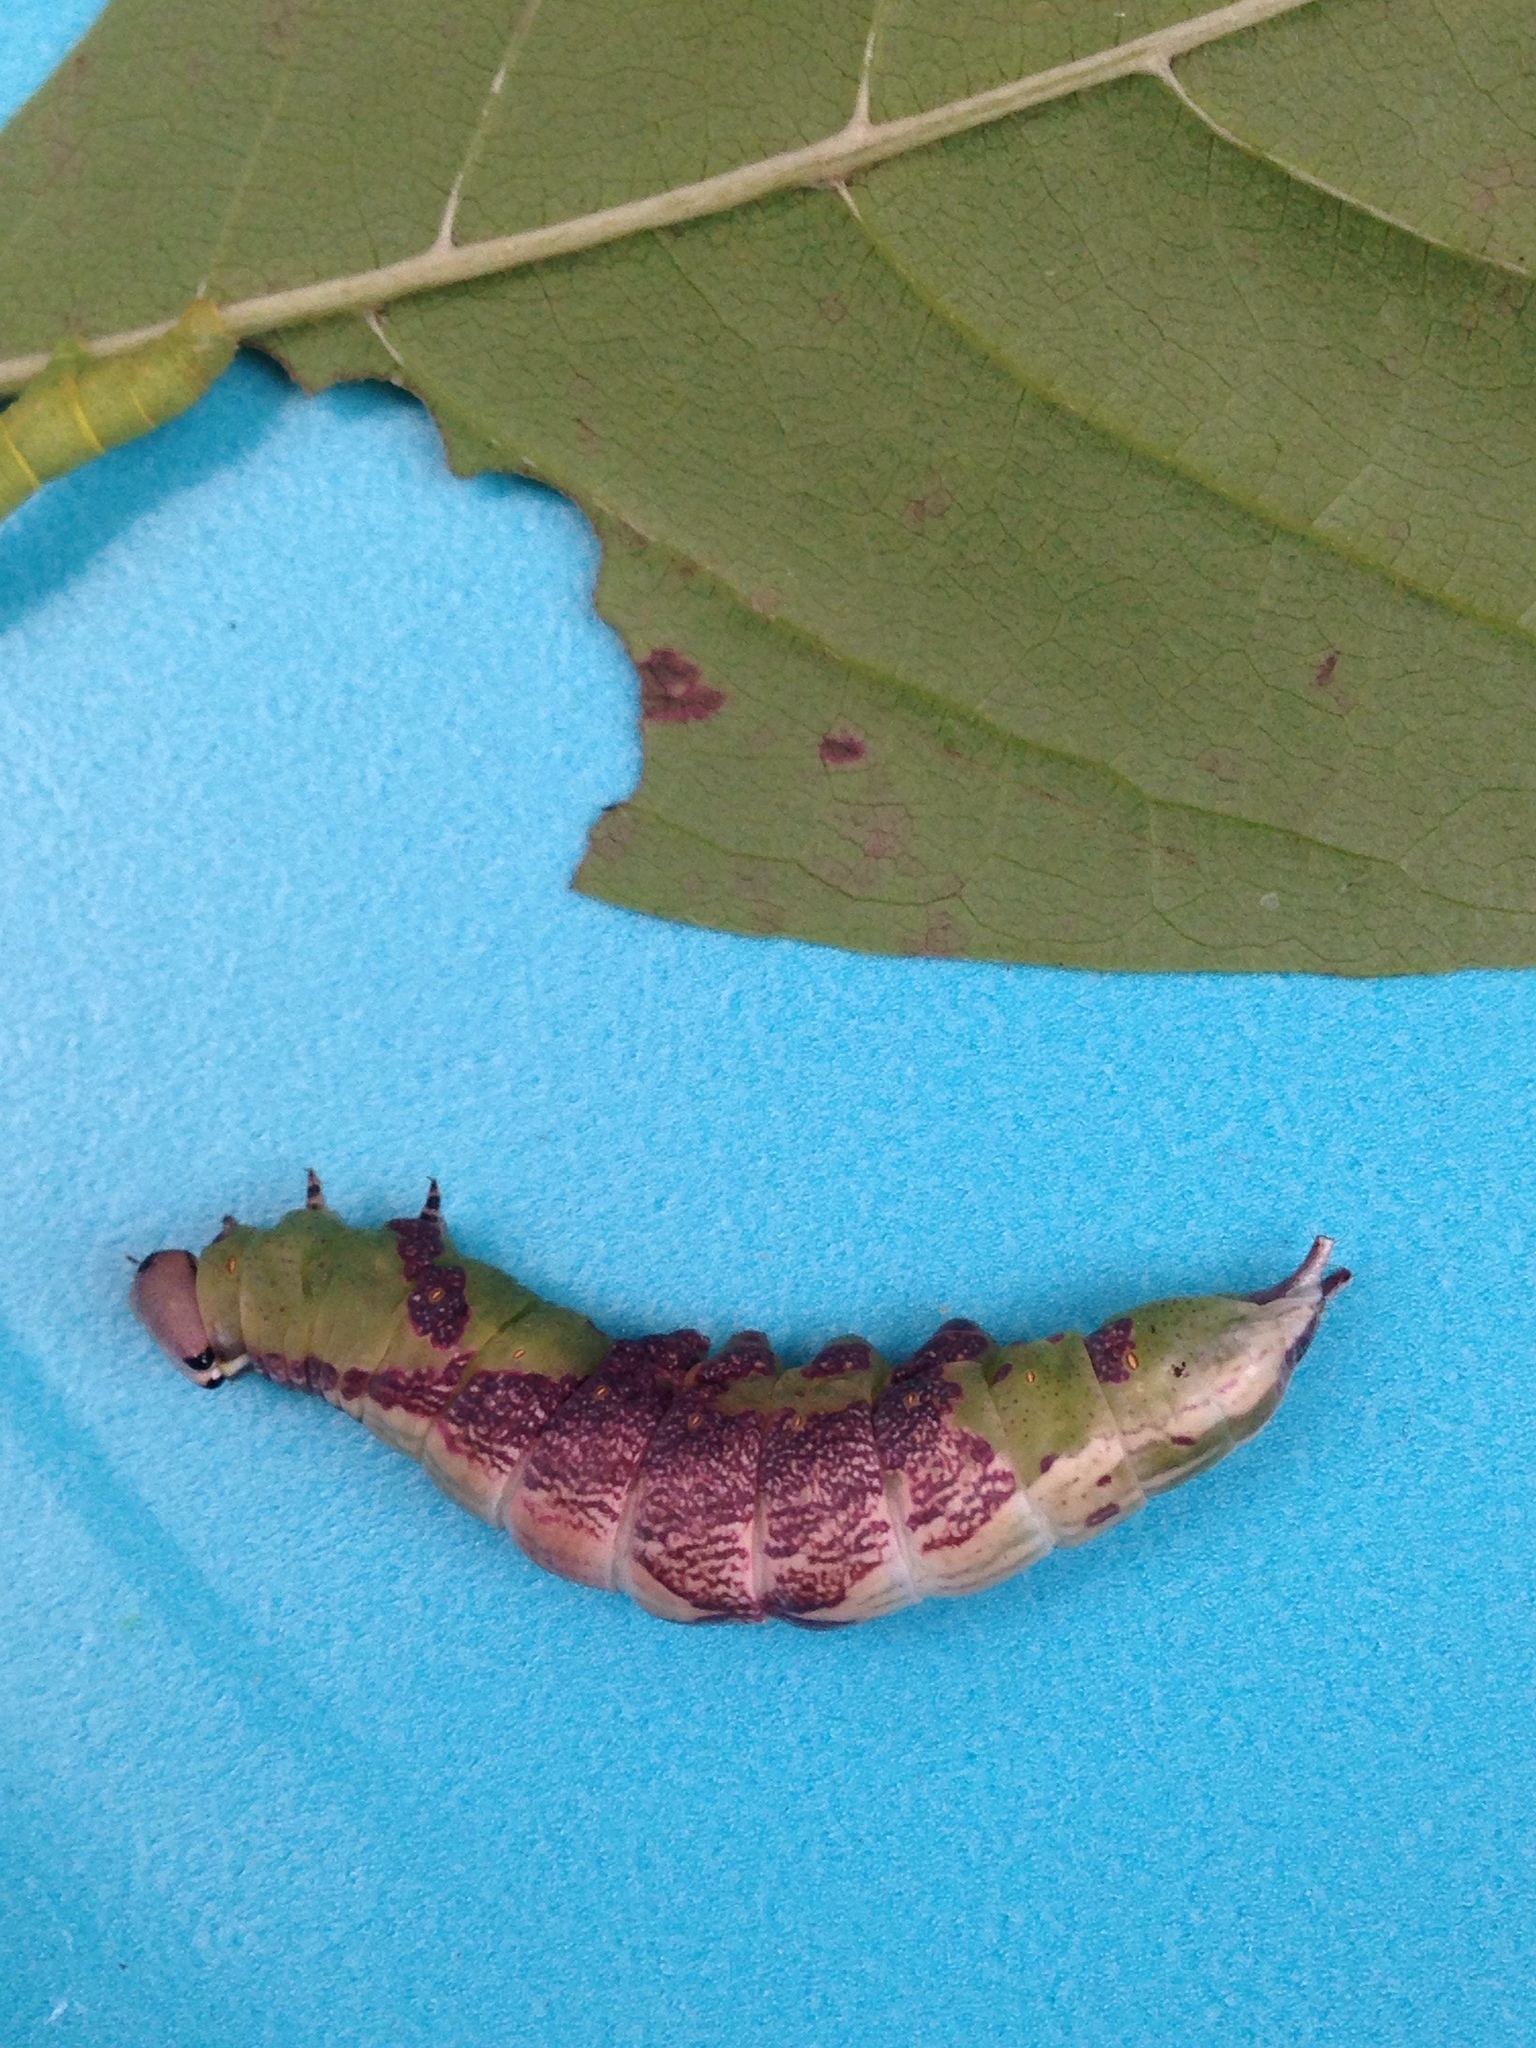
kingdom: Animalia
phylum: Arthropoda
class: Insecta
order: Lepidoptera
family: Notodontidae
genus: Disphragis
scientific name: Disphragis Cecrita biundata
